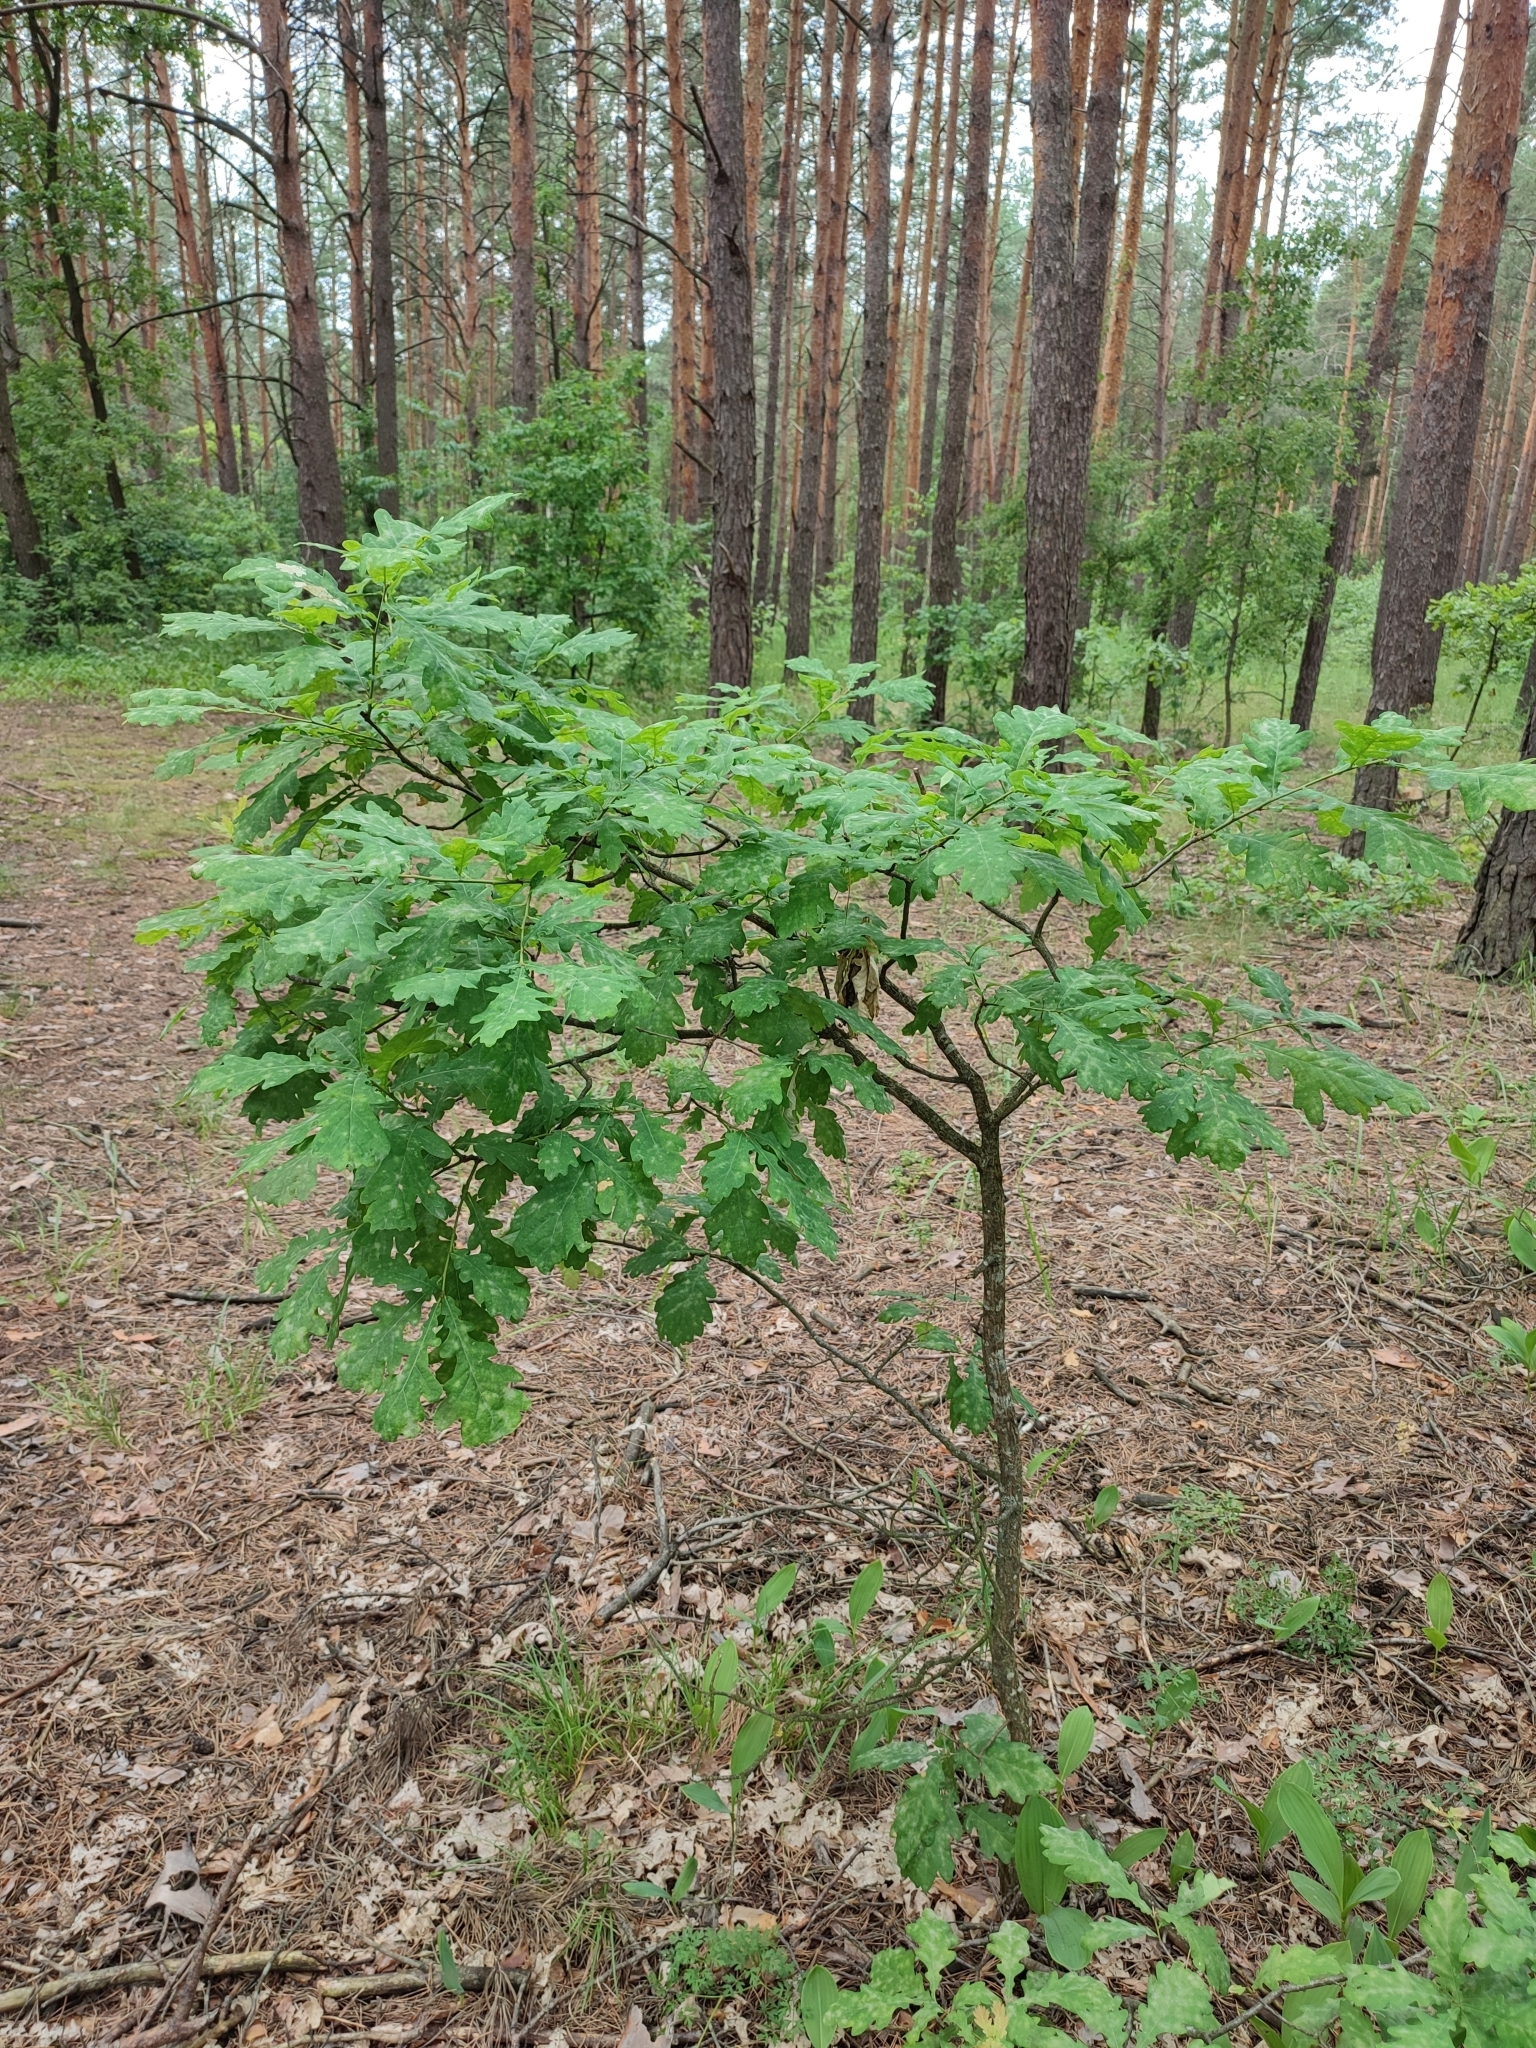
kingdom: Plantae
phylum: Tracheophyta
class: Magnoliopsida
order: Fagales
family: Fagaceae
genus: Quercus
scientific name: Quercus robur
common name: Pedunculate oak
